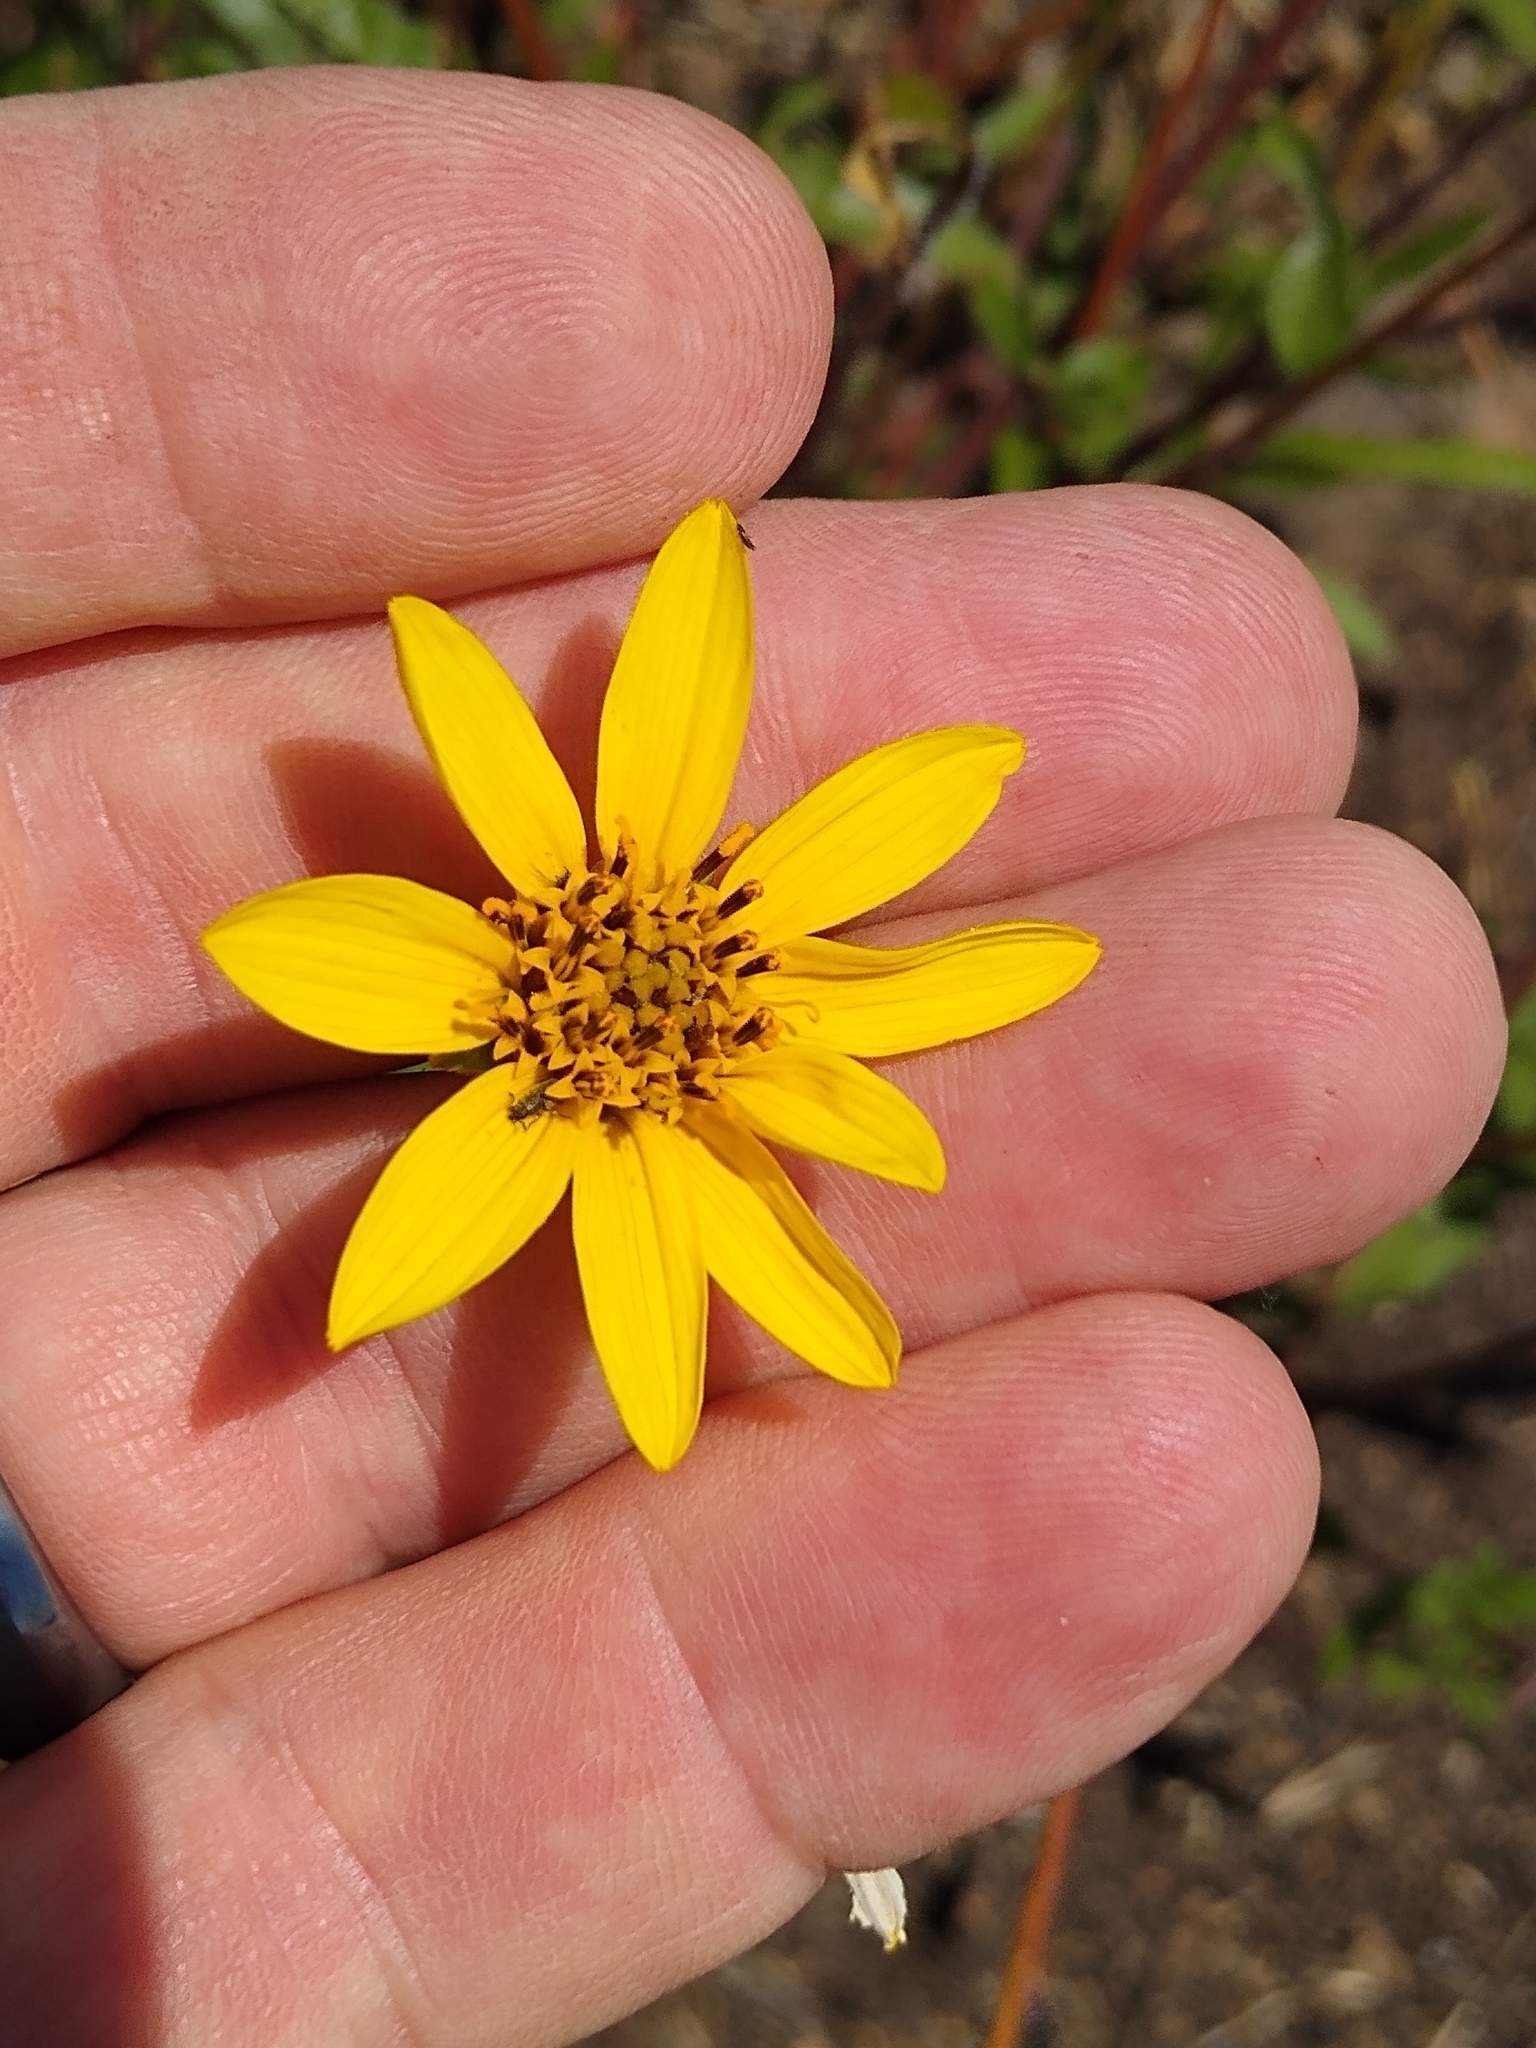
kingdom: Plantae
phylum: Tracheophyta
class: Magnoliopsida
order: Asterales
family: Asteraceae
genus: Helianthus
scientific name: Helianthus gracilentus
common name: Slender sunflower
